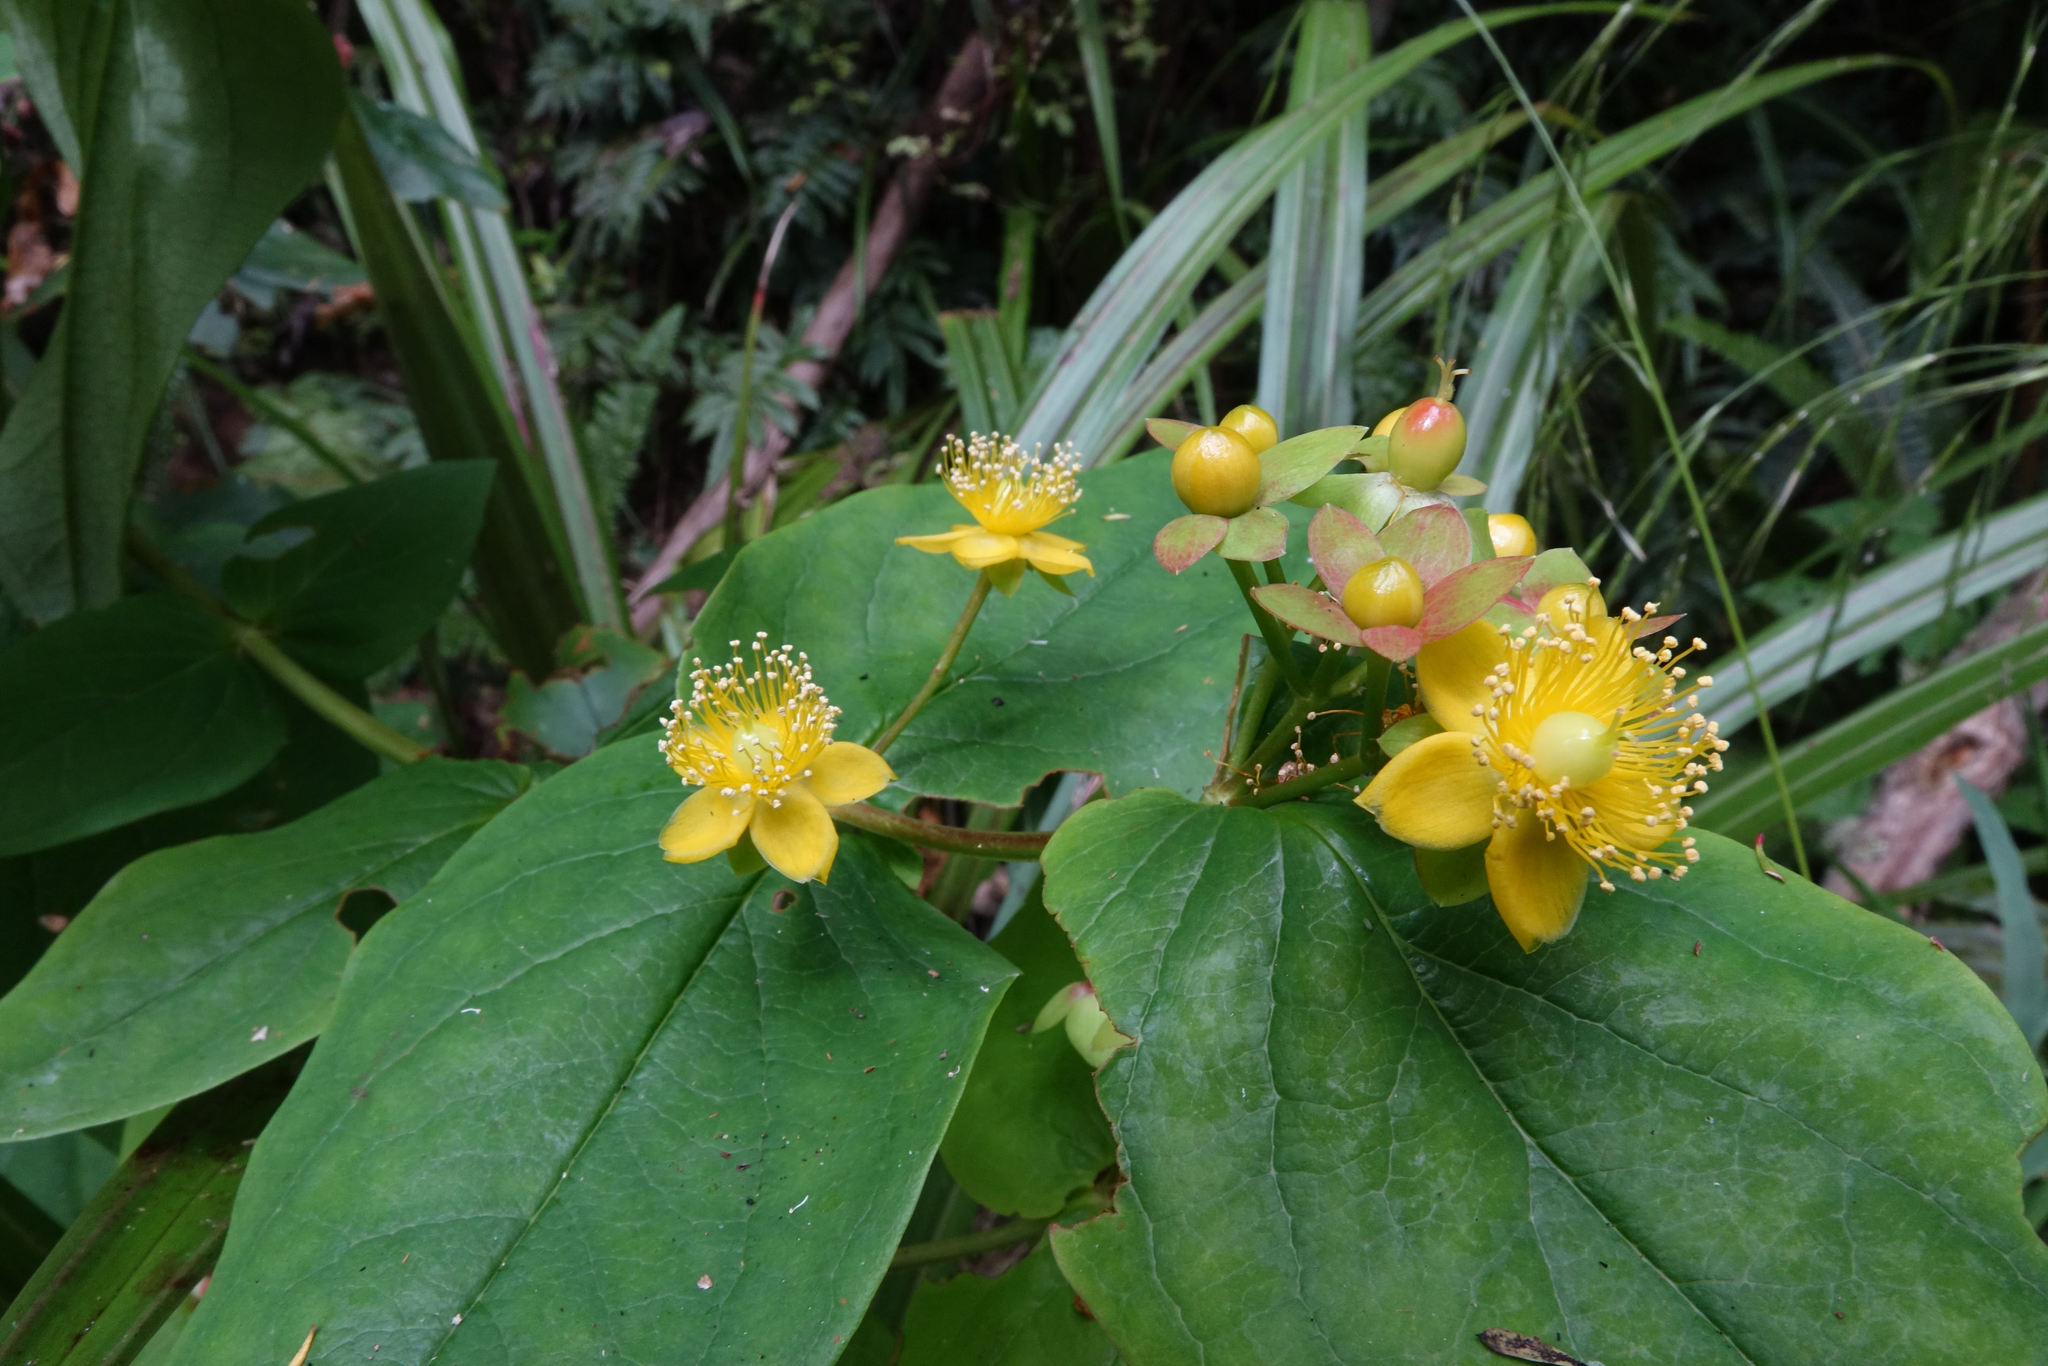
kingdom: Plantae
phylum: Tracheophyta
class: Magnoliopsida
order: Malpighiales
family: Hypericaceae
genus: Hypericum
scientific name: Hypericum androsaemum
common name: Sweet-amber
